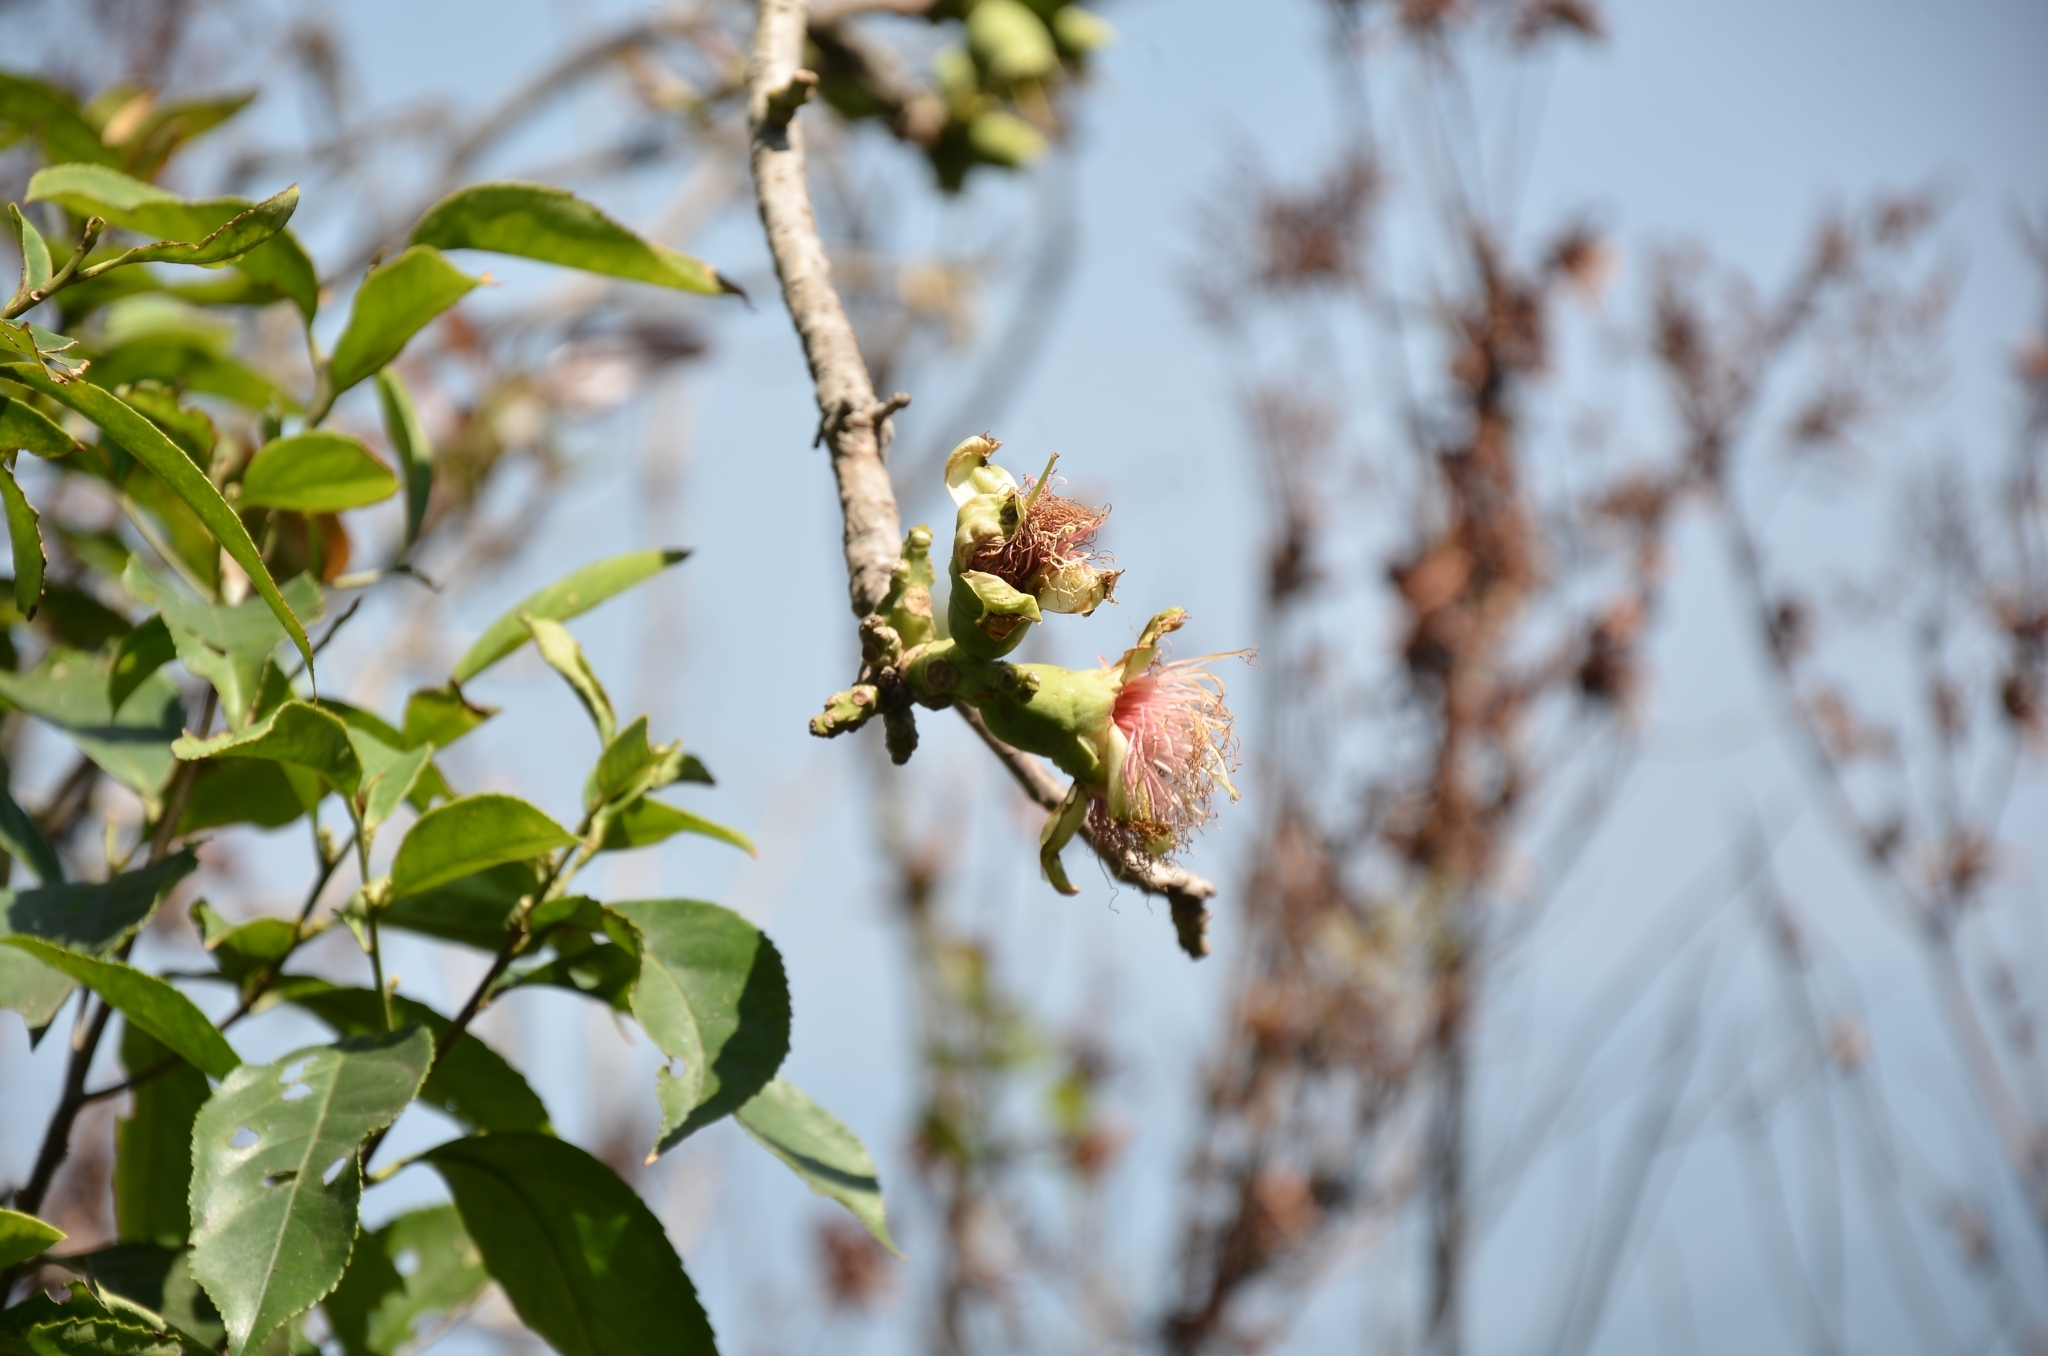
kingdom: Plantae
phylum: Tracheophyta
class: Magnoliopsida
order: Ericales
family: Lecythidaceae
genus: Careya
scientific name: Careya arborea
